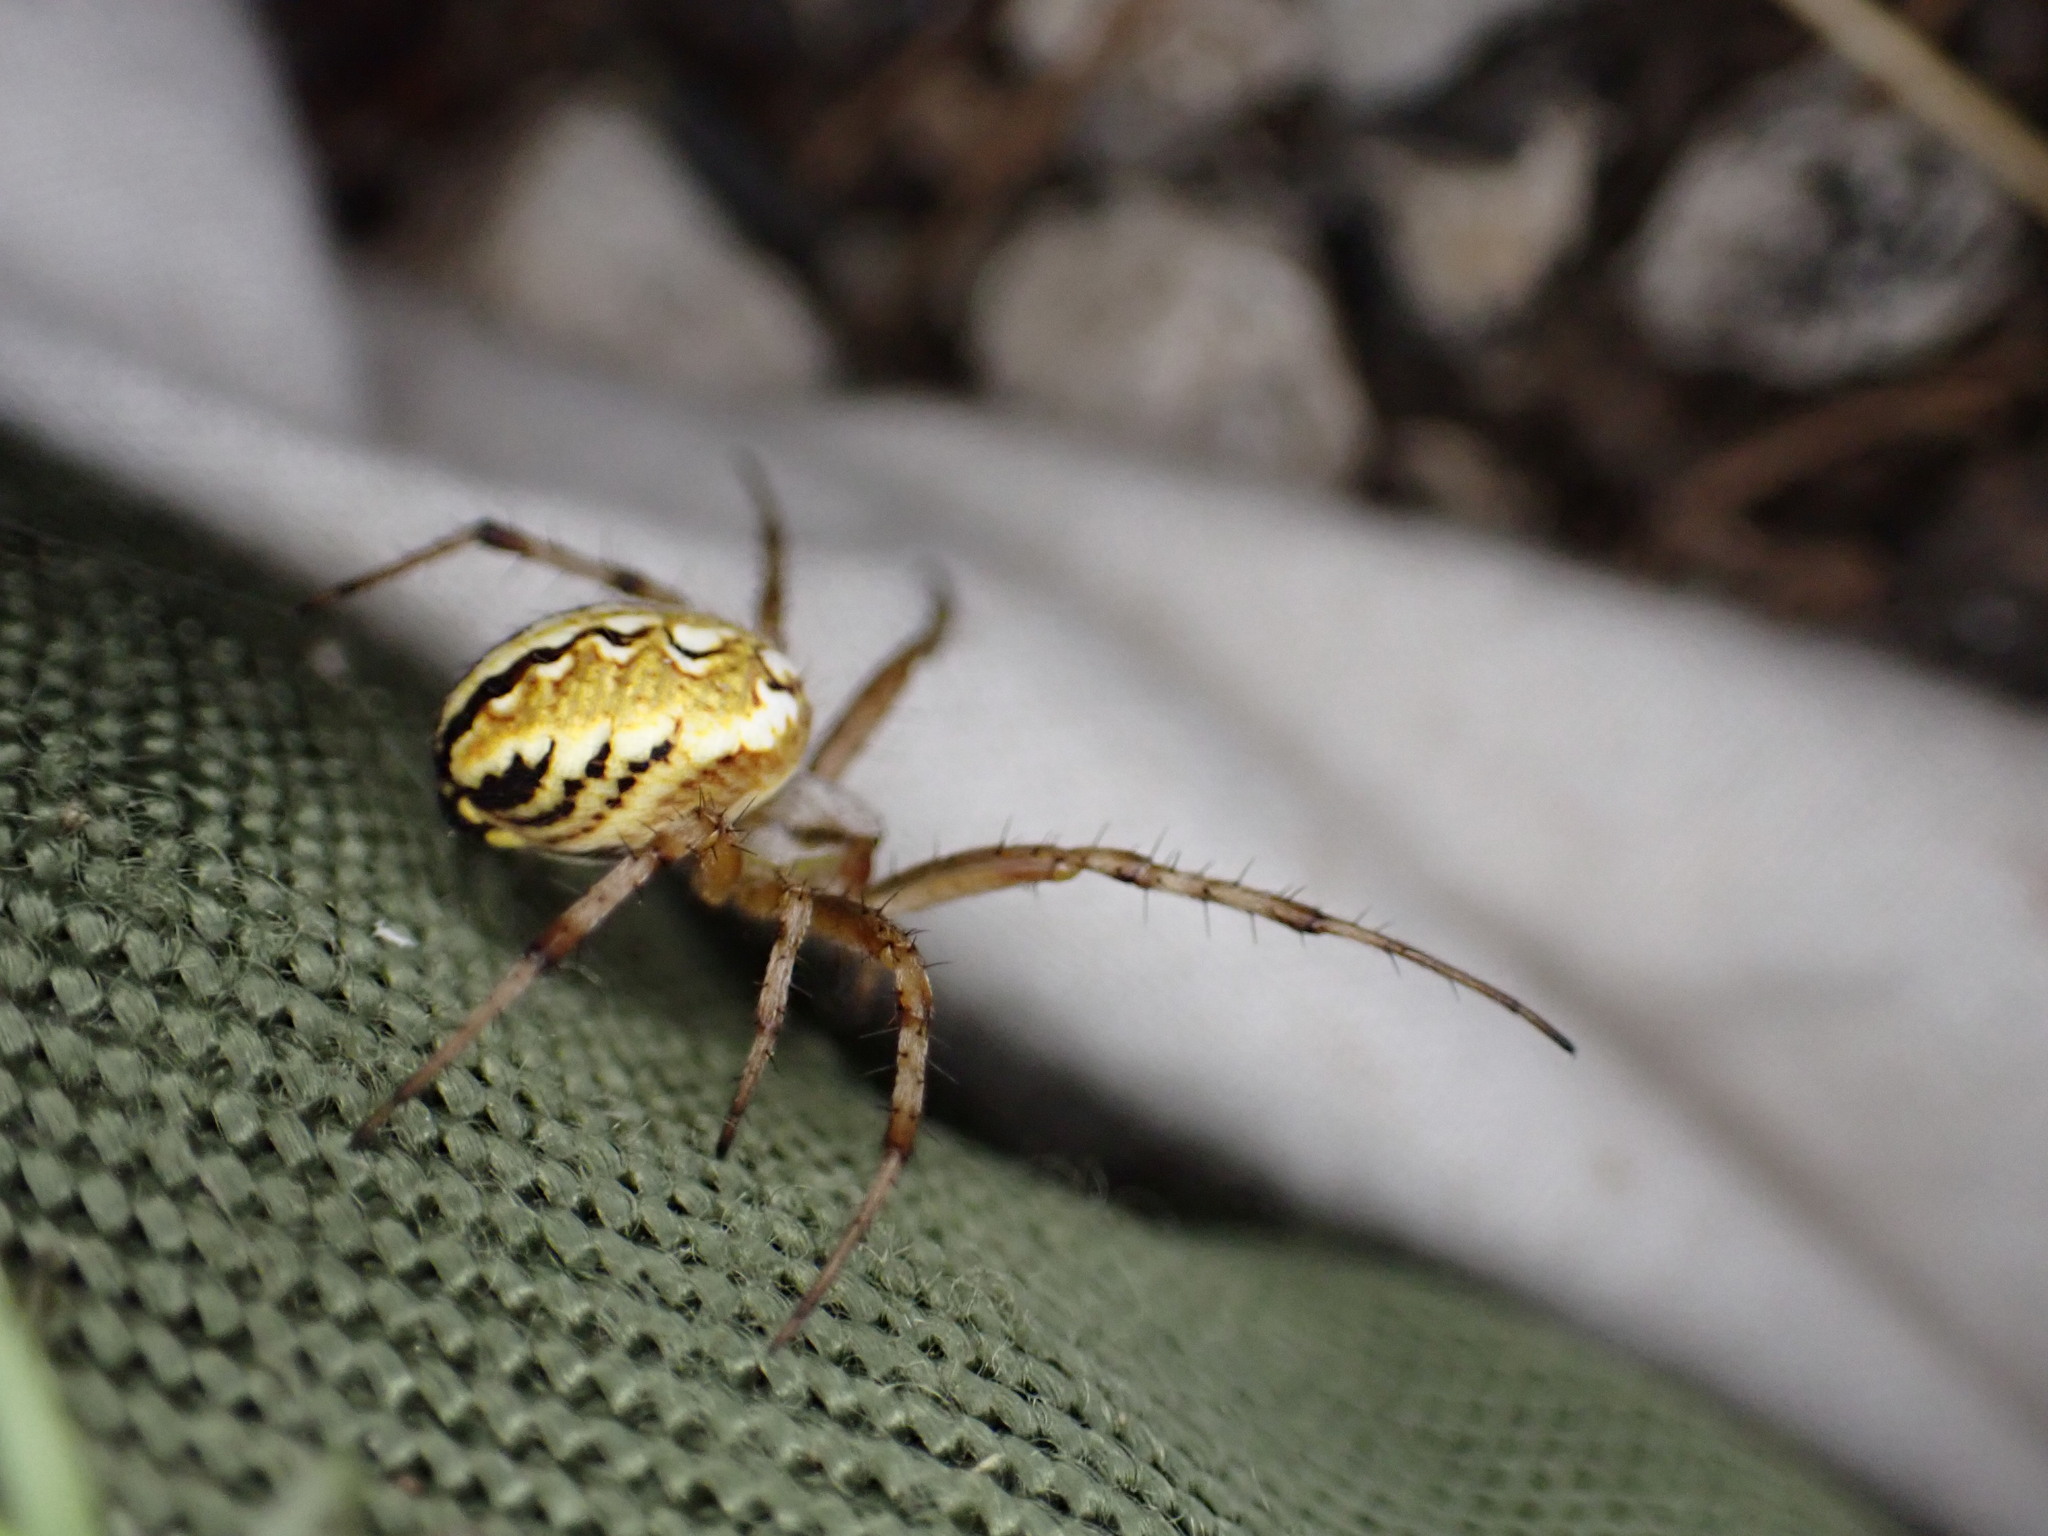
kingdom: Animalia
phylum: Arthropoda
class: Arachnida
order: Araneae
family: Araneidae
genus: Neoscona
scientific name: Neoscona adianta
